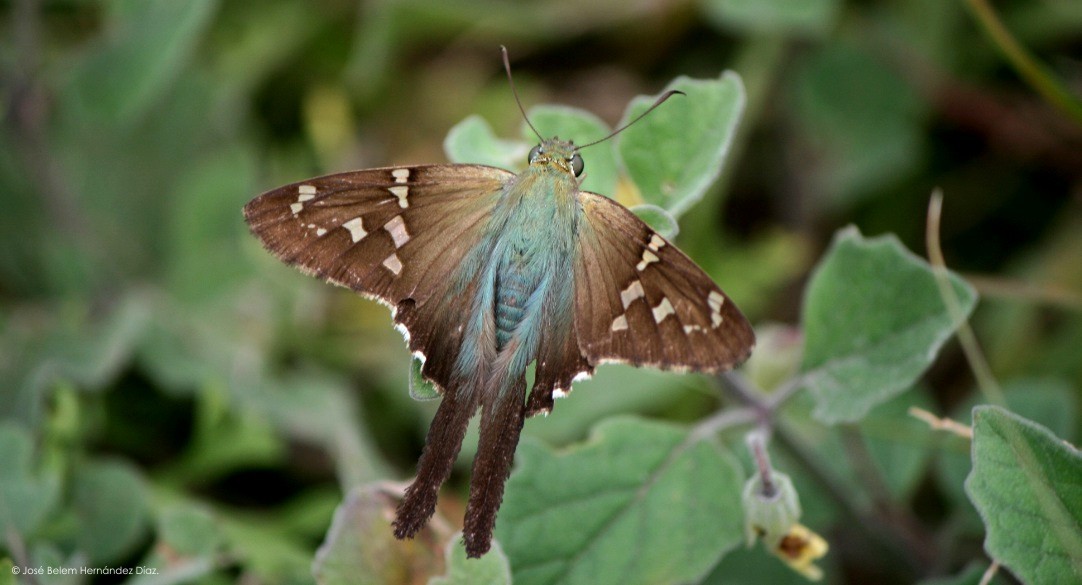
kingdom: Animalia
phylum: Arthropoda
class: Insecta
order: Lepidoptera
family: Hesperiidae
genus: Urbanus
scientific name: Urbanus proteus
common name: Long-tailed skipper
